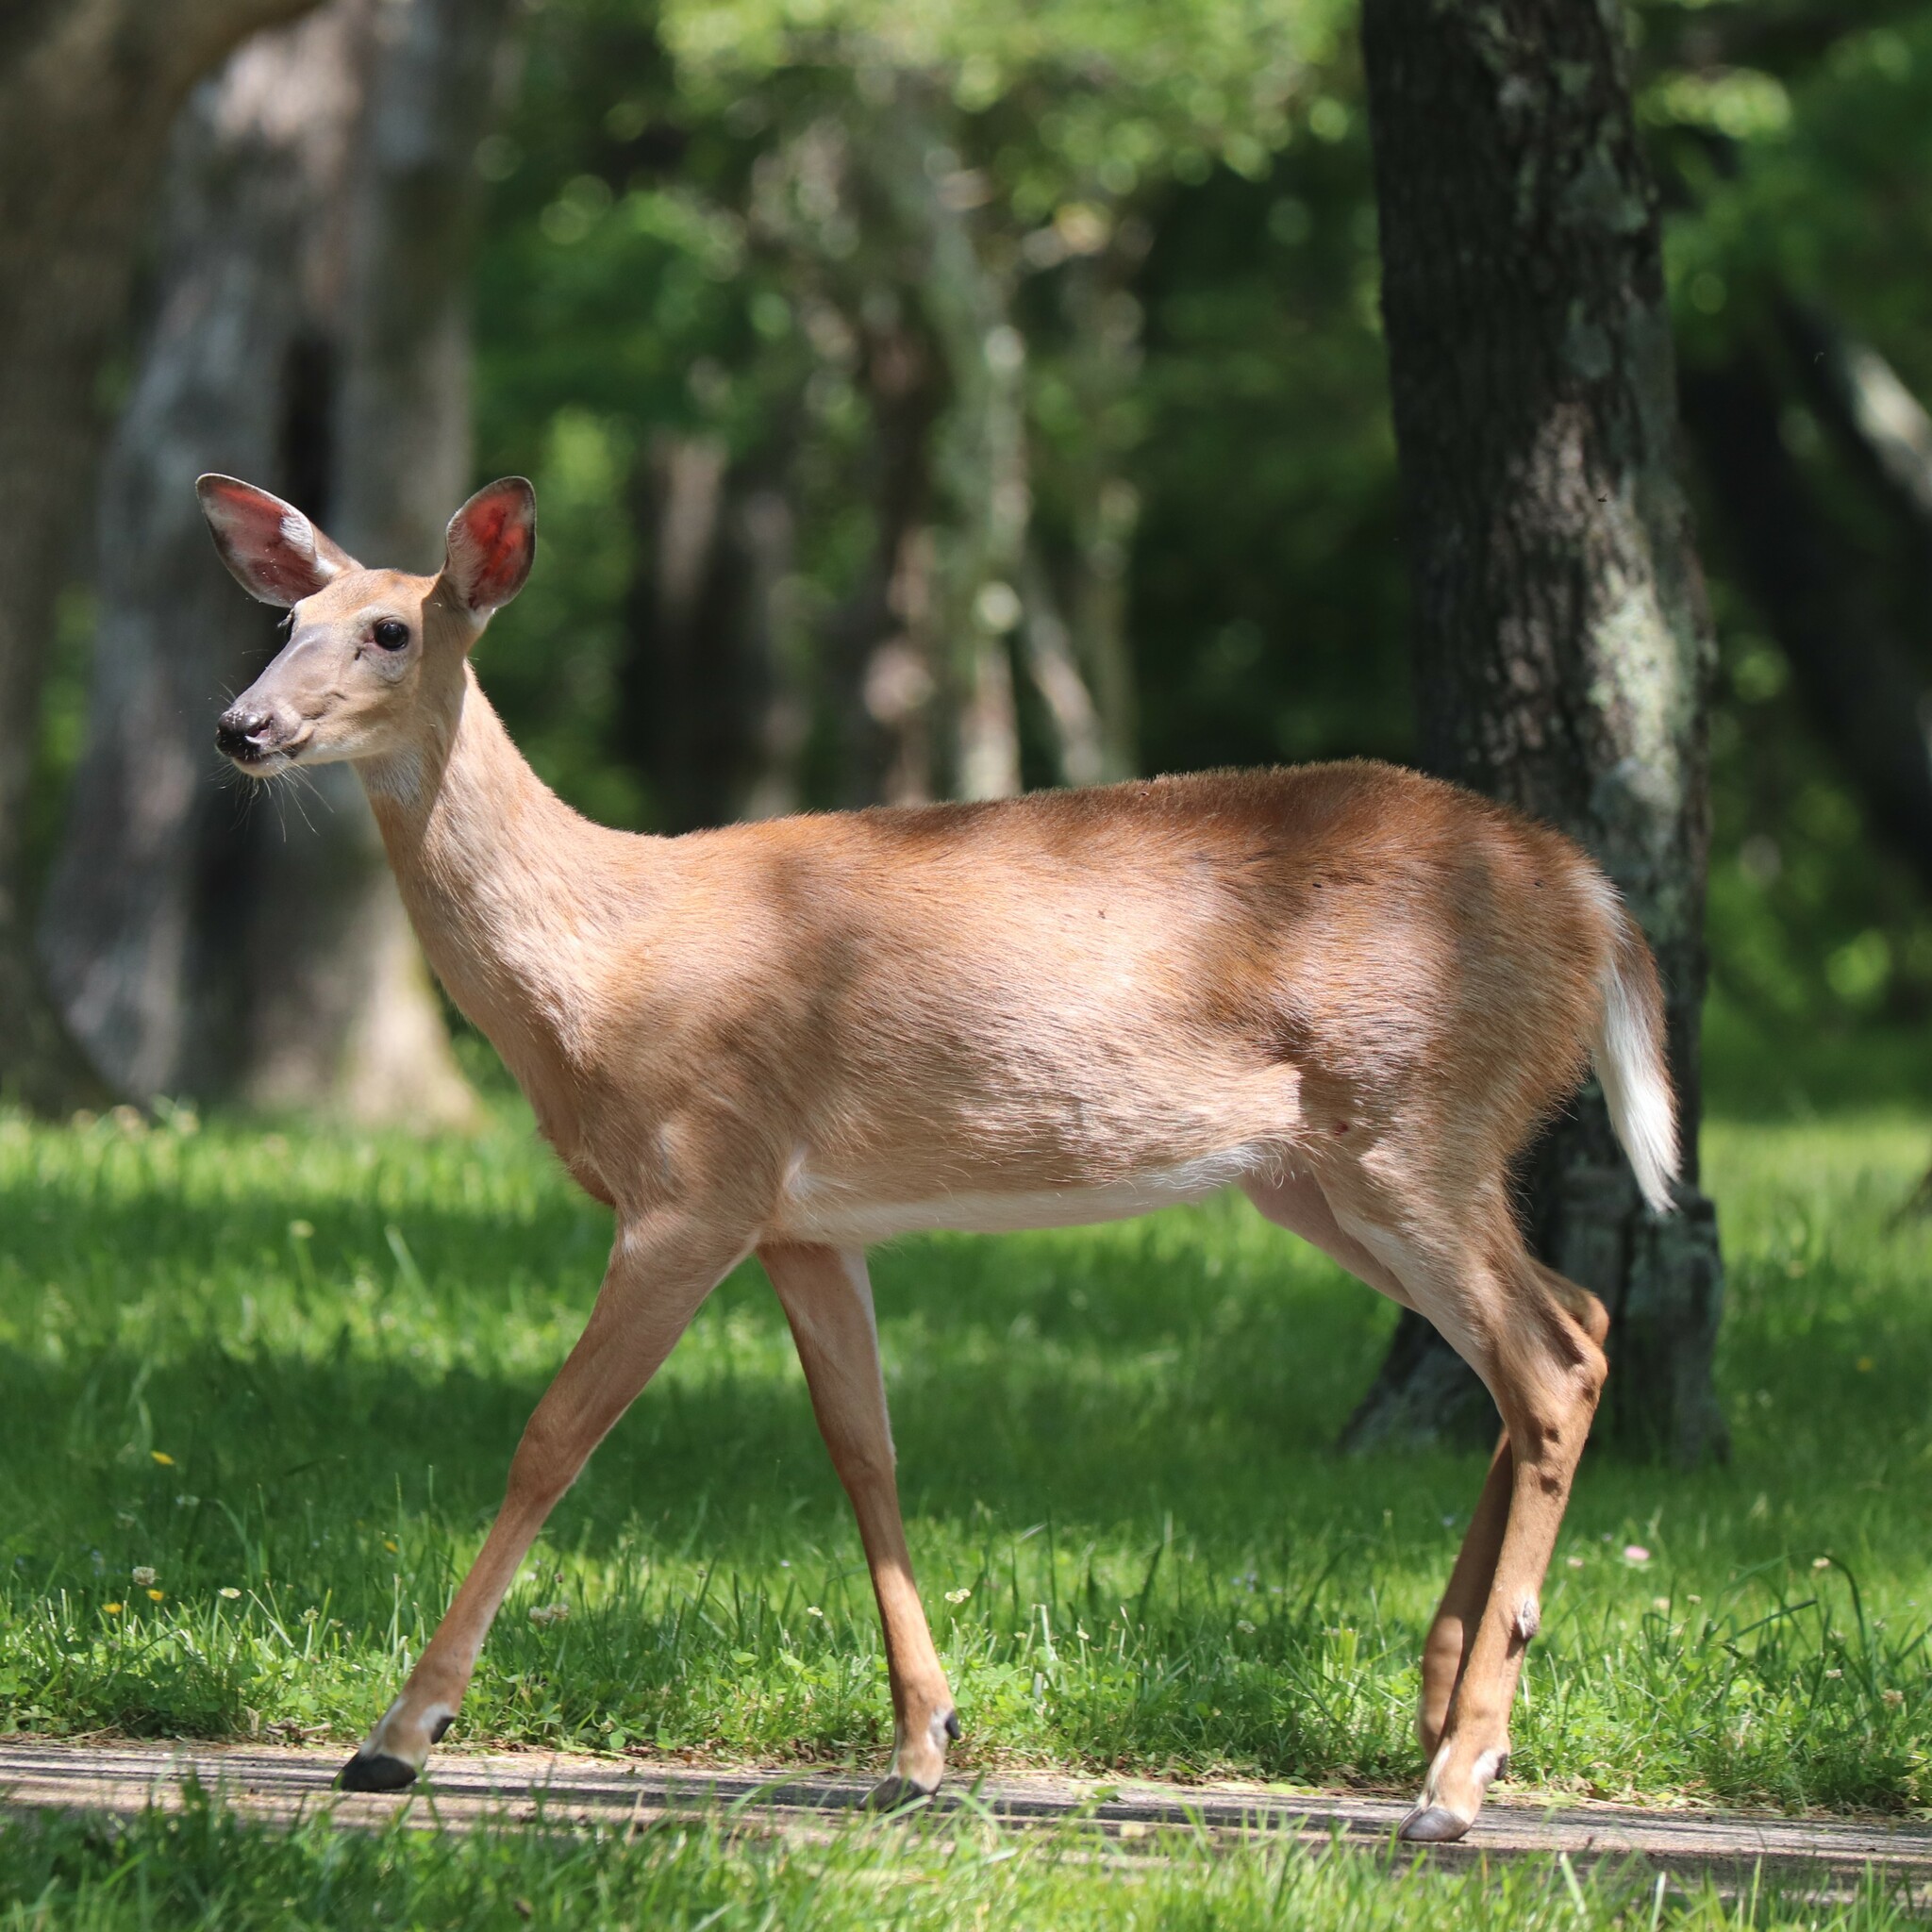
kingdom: Animalia
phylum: Chordata
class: Mammalia
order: Artiodactyla
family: Cervidae
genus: Odocoileus
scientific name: Odocoileus virginianus
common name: White-tailed deer
